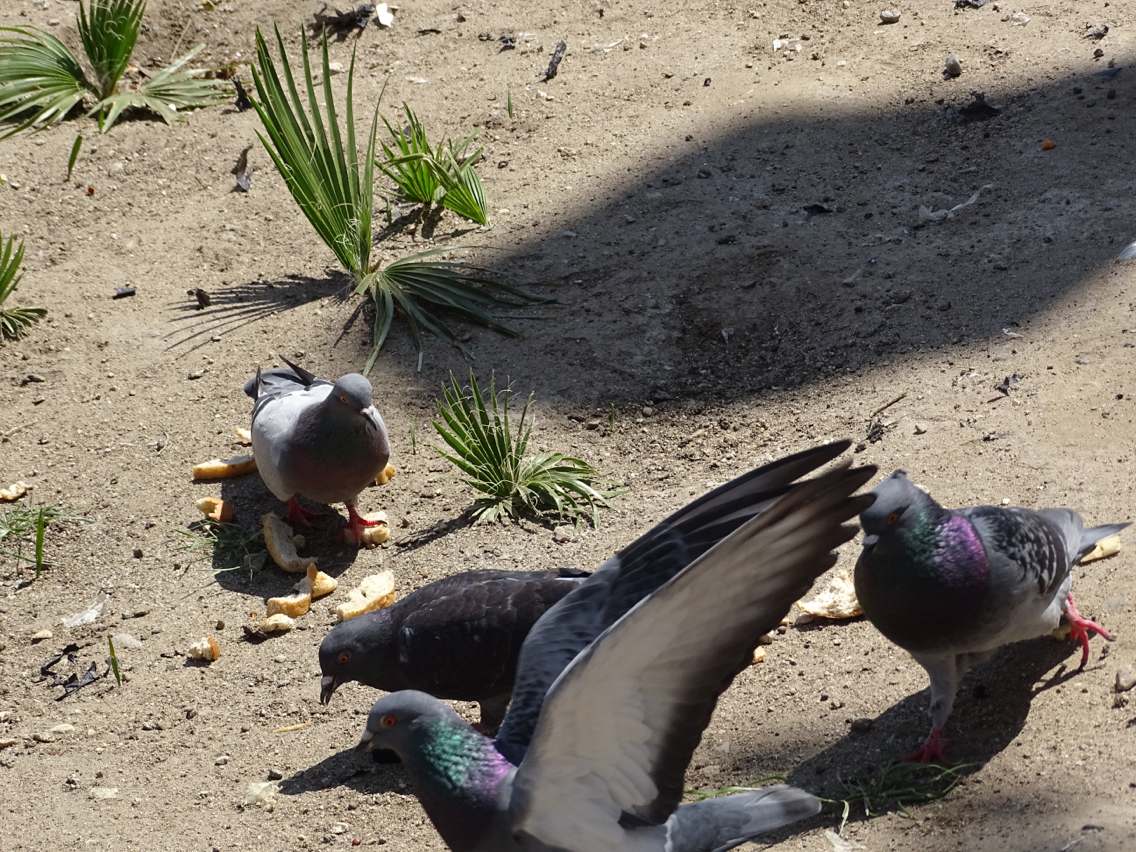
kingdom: Animalia
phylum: Chordata
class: Aves
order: Columbiformes
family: Columbidae
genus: Columba
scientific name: Columba livia
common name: Rock pigeon
